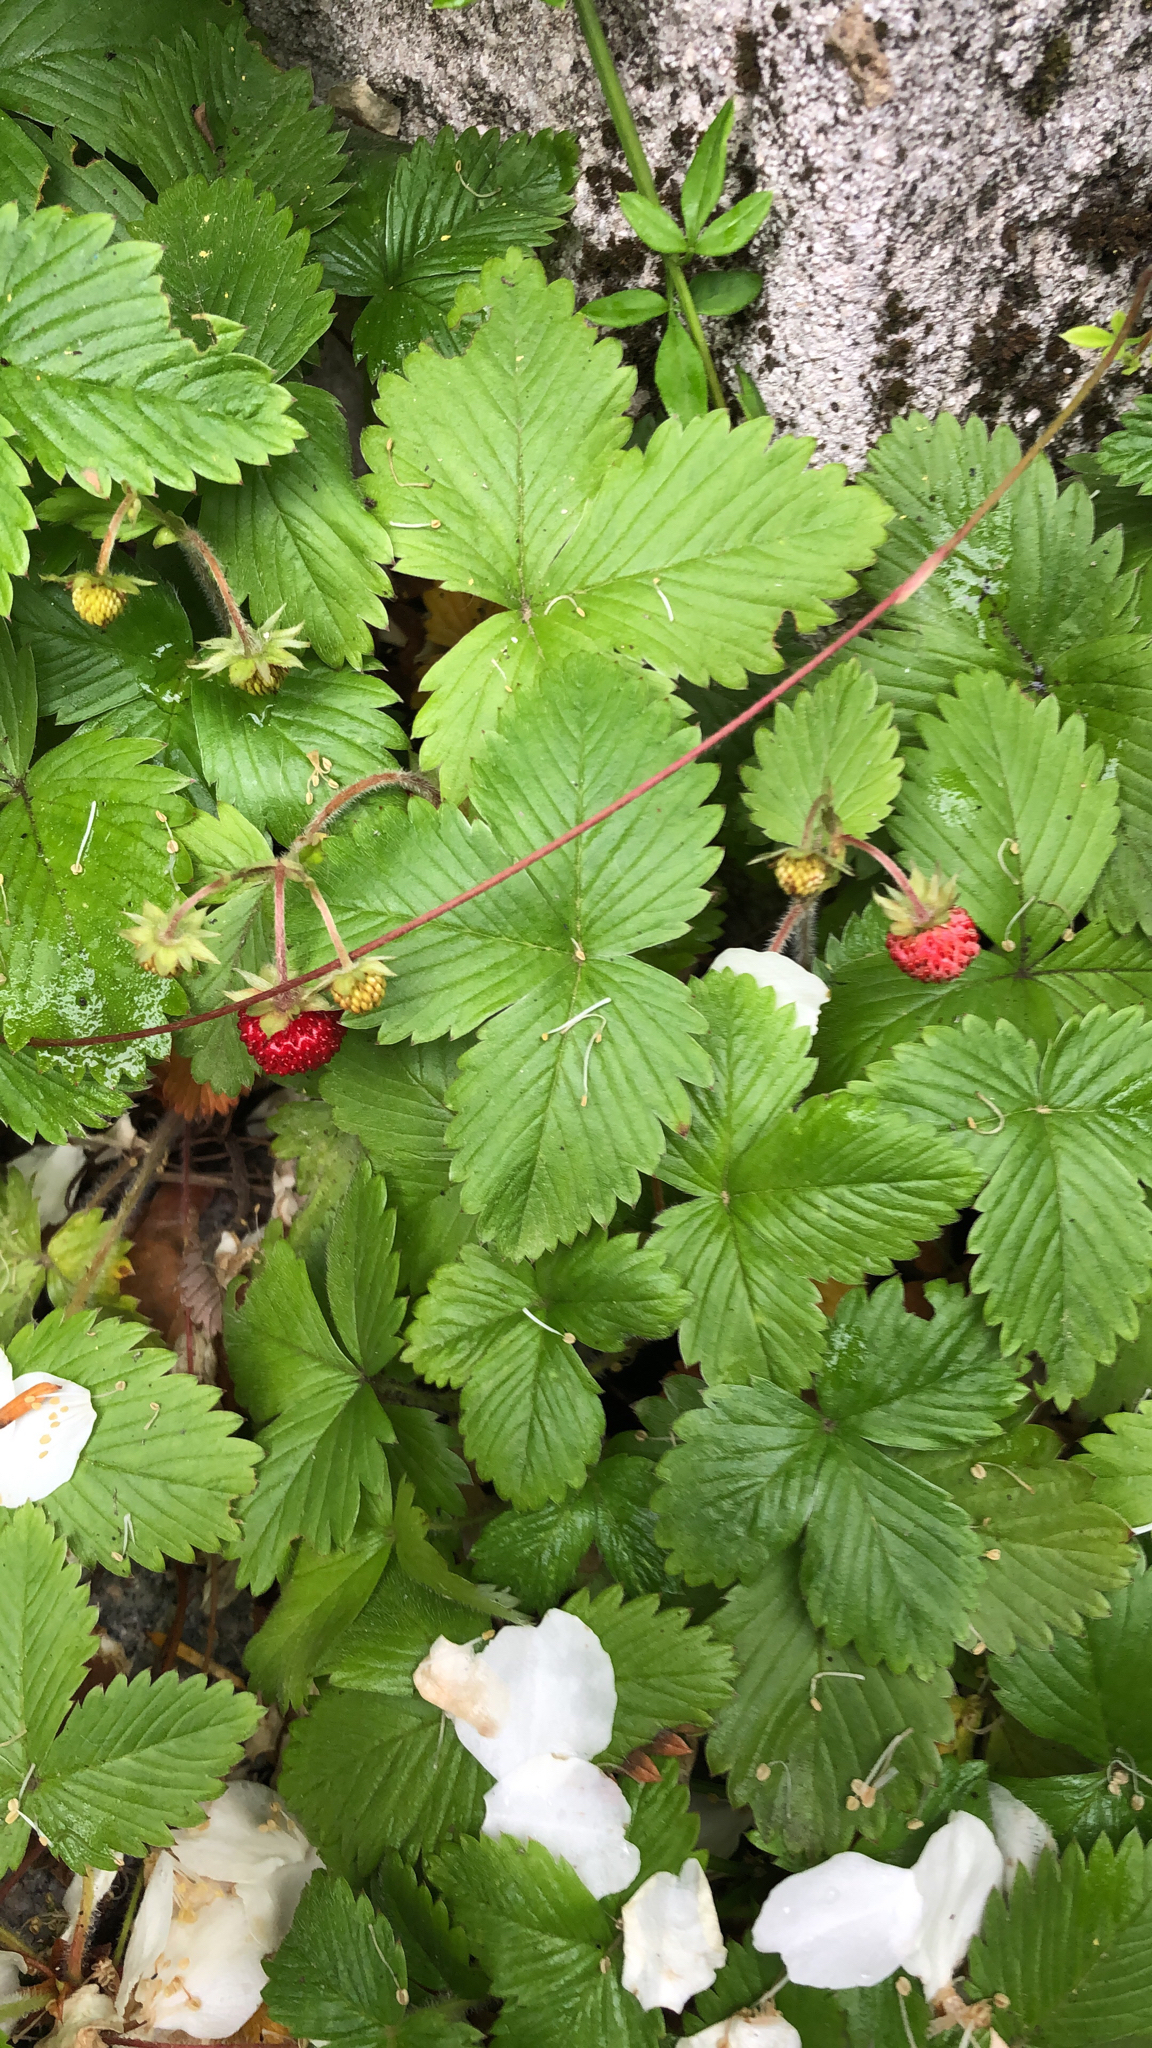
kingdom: Plantae
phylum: Tracheophyta
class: Magnoliopsida
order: Rosales
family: Rosaceae
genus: Fragaria
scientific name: Fragaria vesca
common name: Wild strawberry
